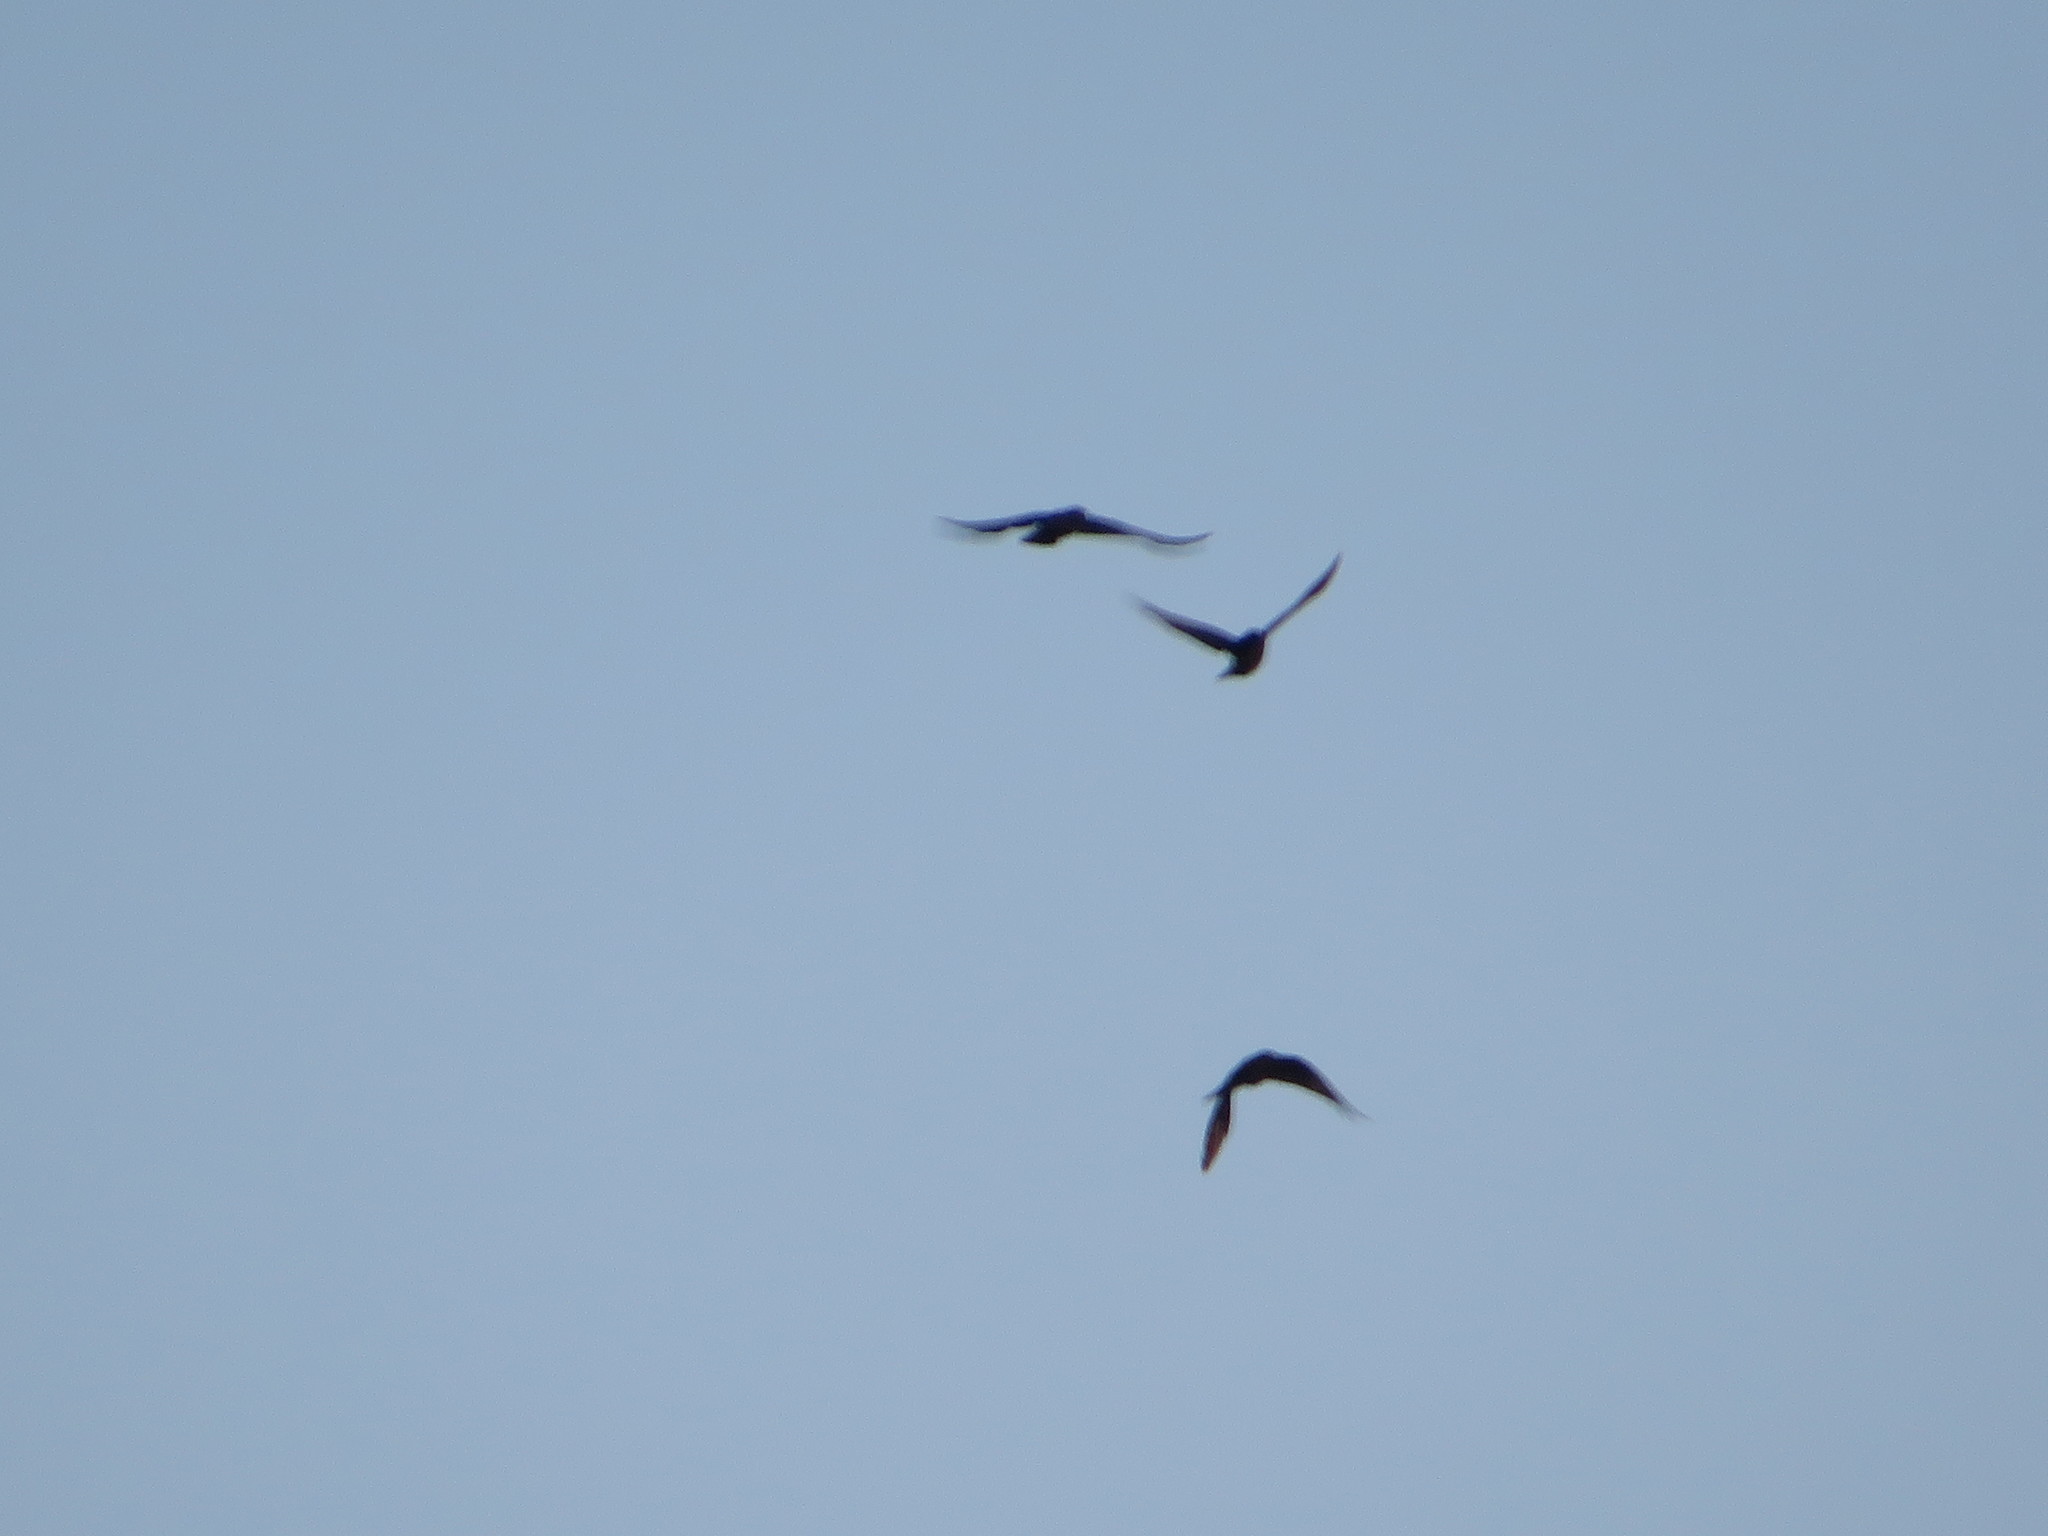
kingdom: Animalia
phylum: Chordata
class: Aves
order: Passeriformes
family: Corvidae
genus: Corvus
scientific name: Corvus brachyrhynchos
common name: American crow
